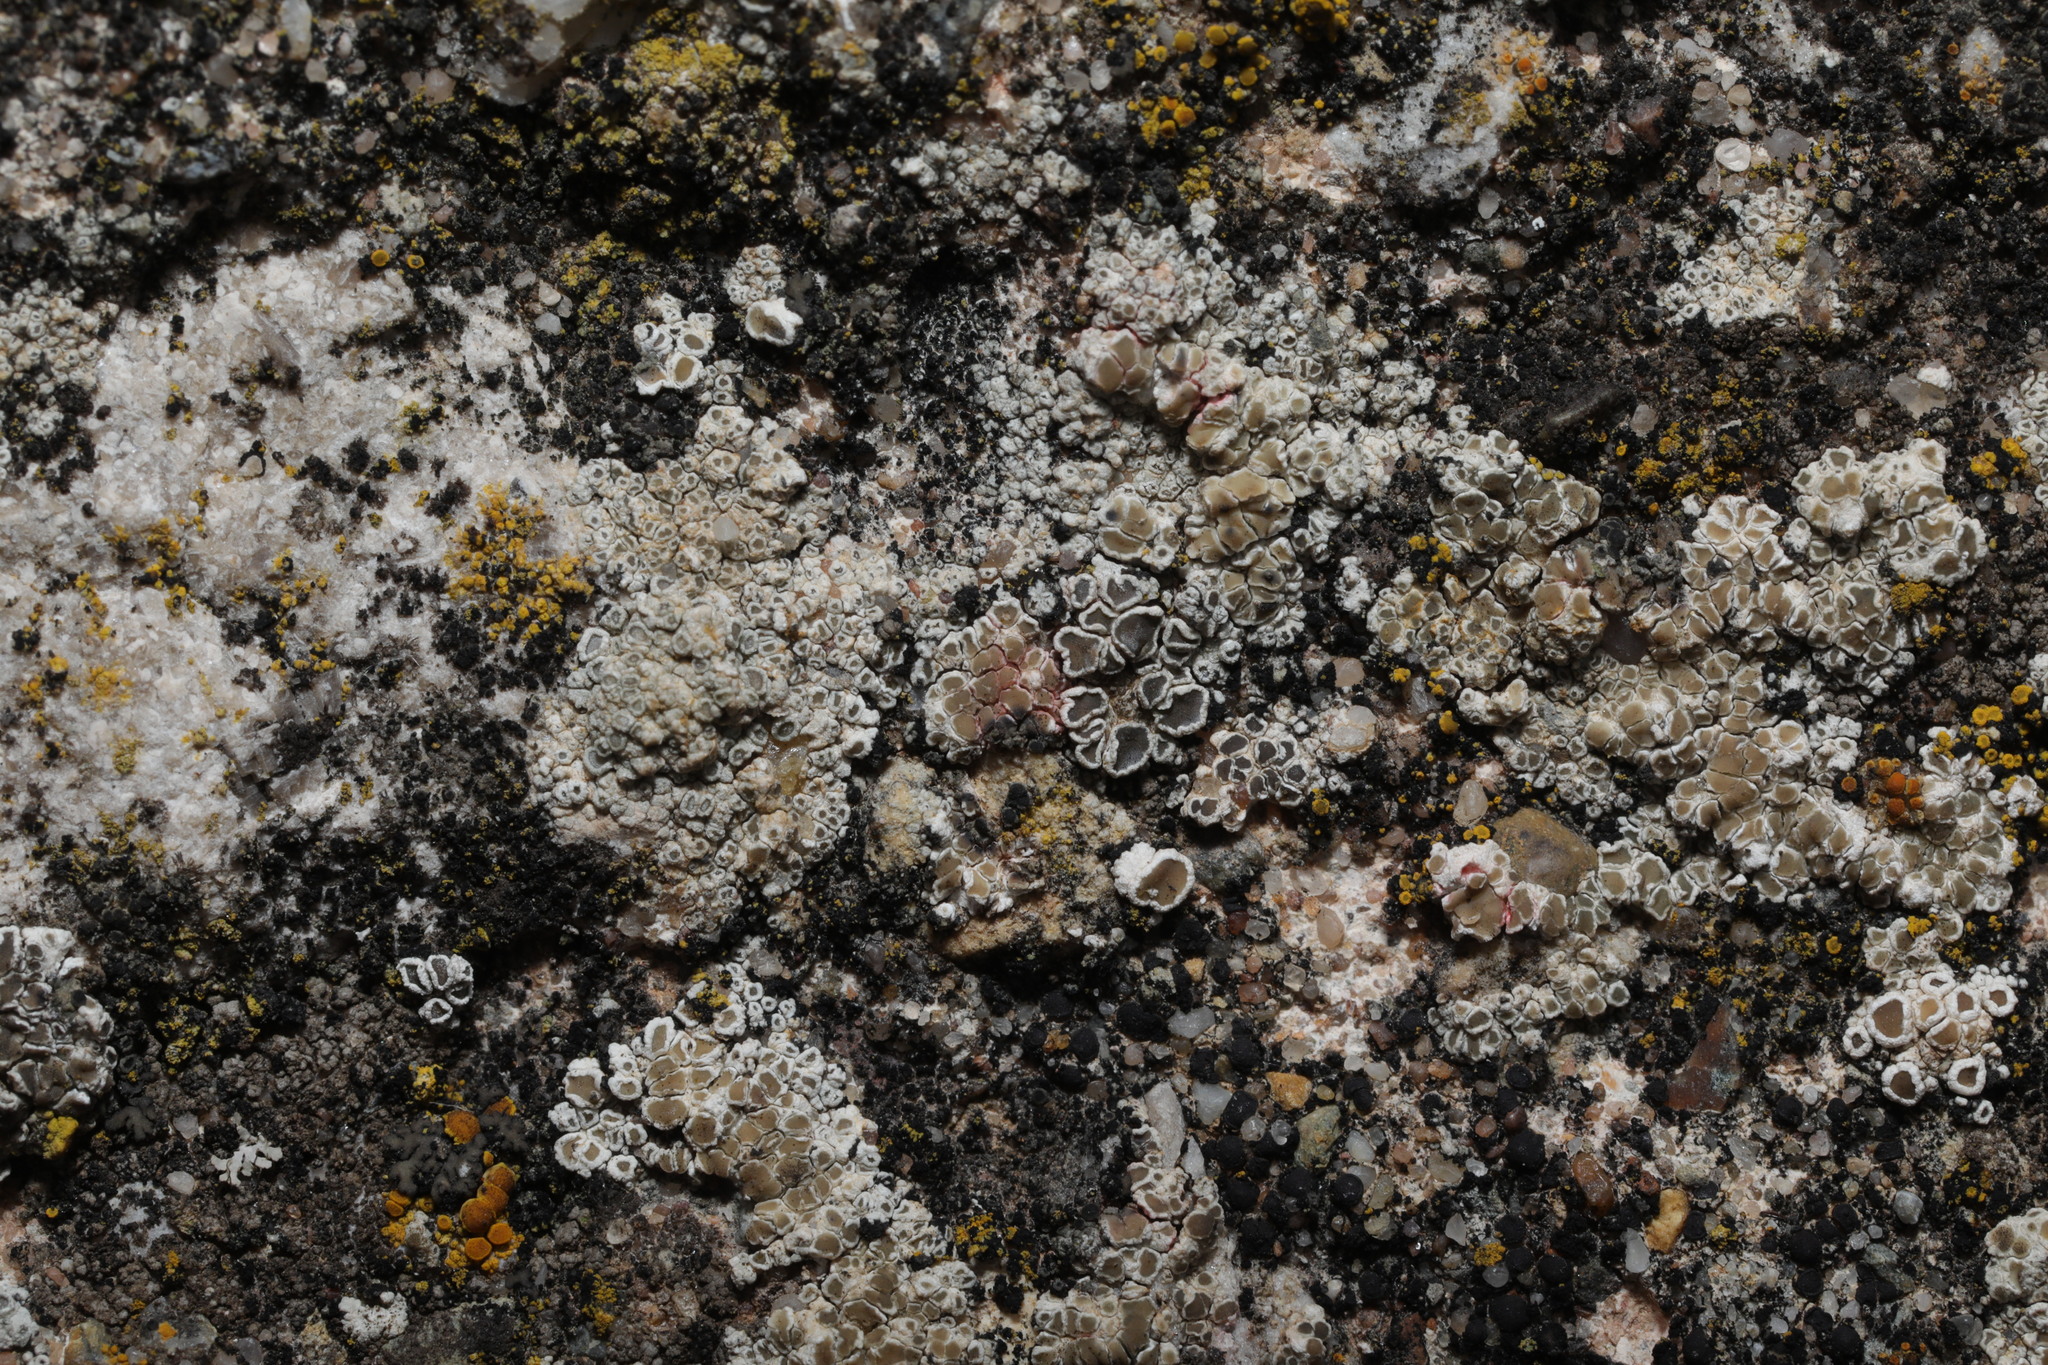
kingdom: Fungi
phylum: Ascomycota
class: Lecanoromycetes
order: Lecanorales
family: Lecanoraceae
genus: Polyozosia
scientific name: Polyozosia albescens
